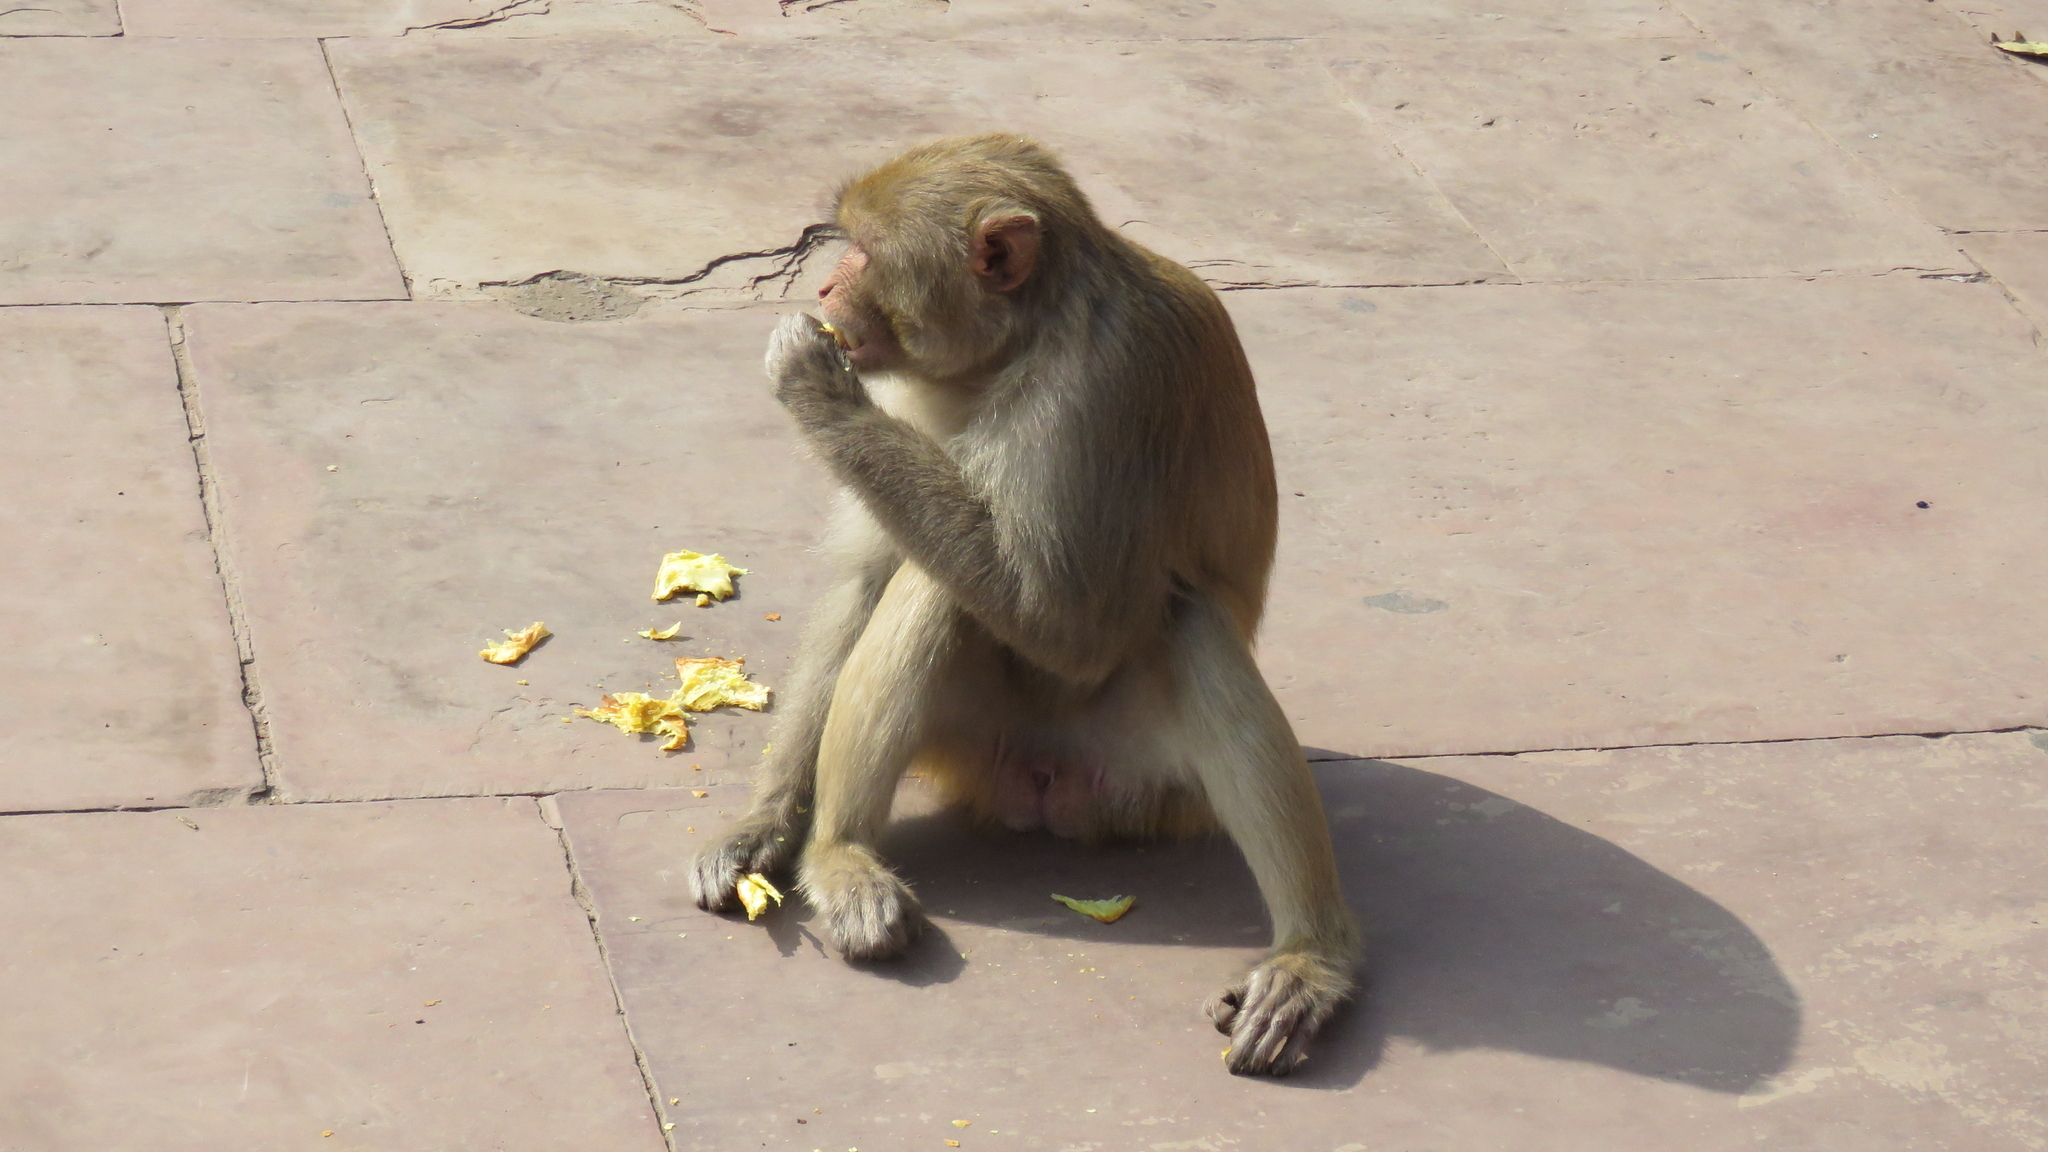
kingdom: Animalia
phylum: Chordata
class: Mammalia
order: Primates
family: Cercopithecidae
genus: Macaca
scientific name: Macaca mulatta
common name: Rhesus monkey
